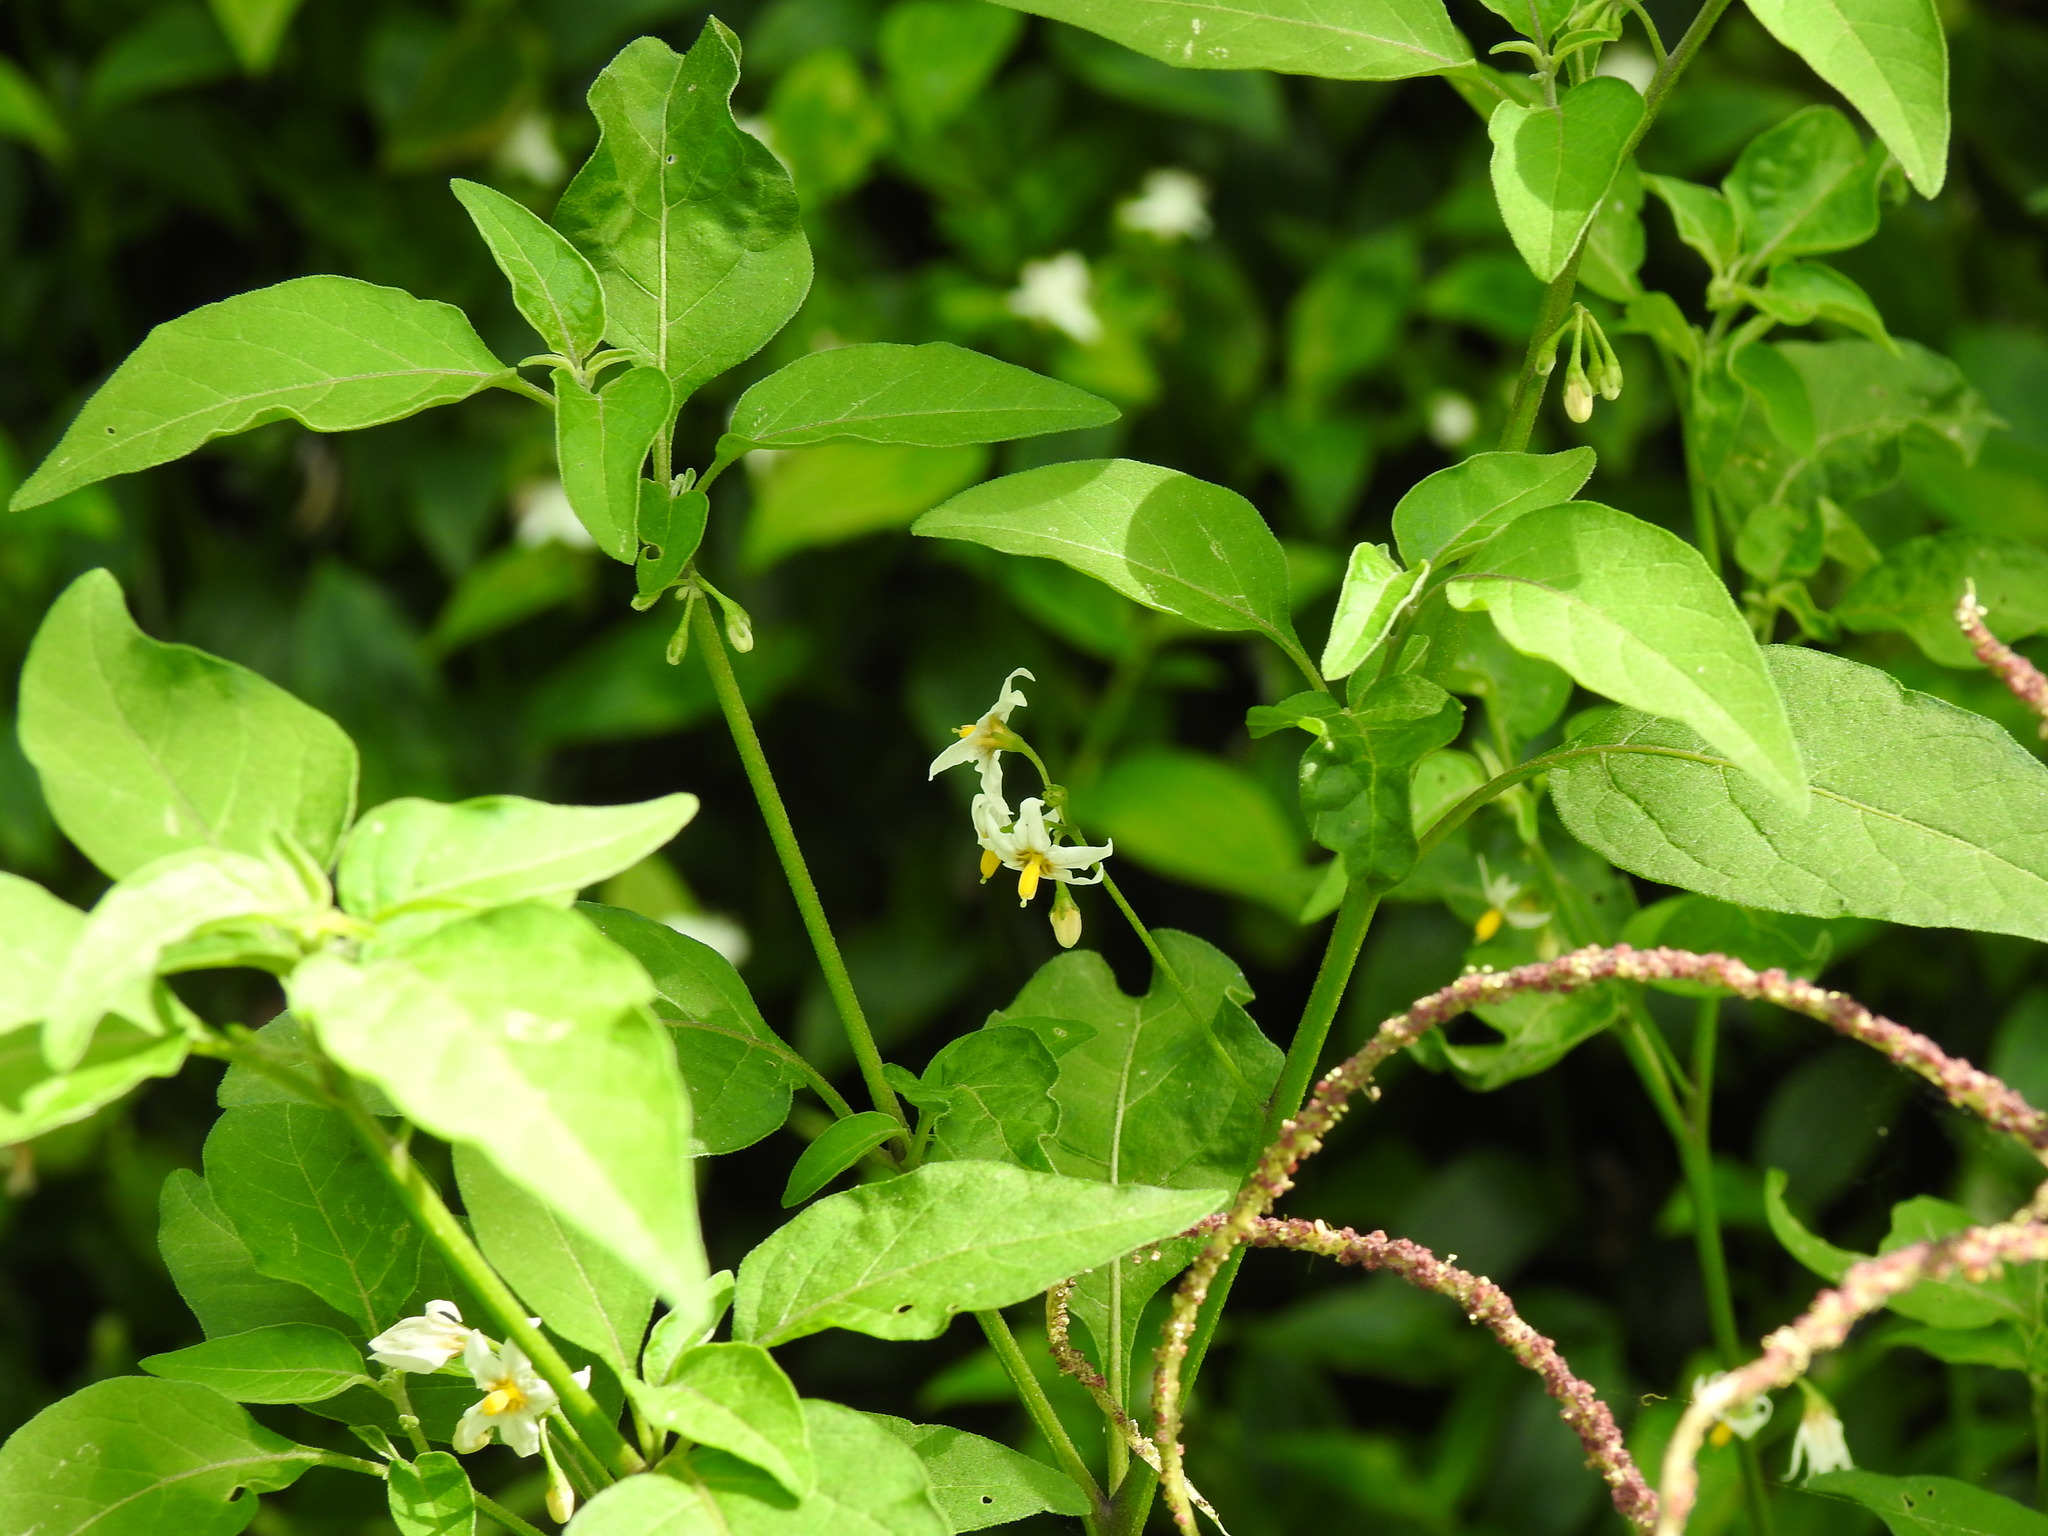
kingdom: Plantae
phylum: Tracheophyta
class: Magnoliopsida
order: Solanales
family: Solanaceae
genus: Solanum
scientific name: Solanum chenopodioides
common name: Tall nightshade
